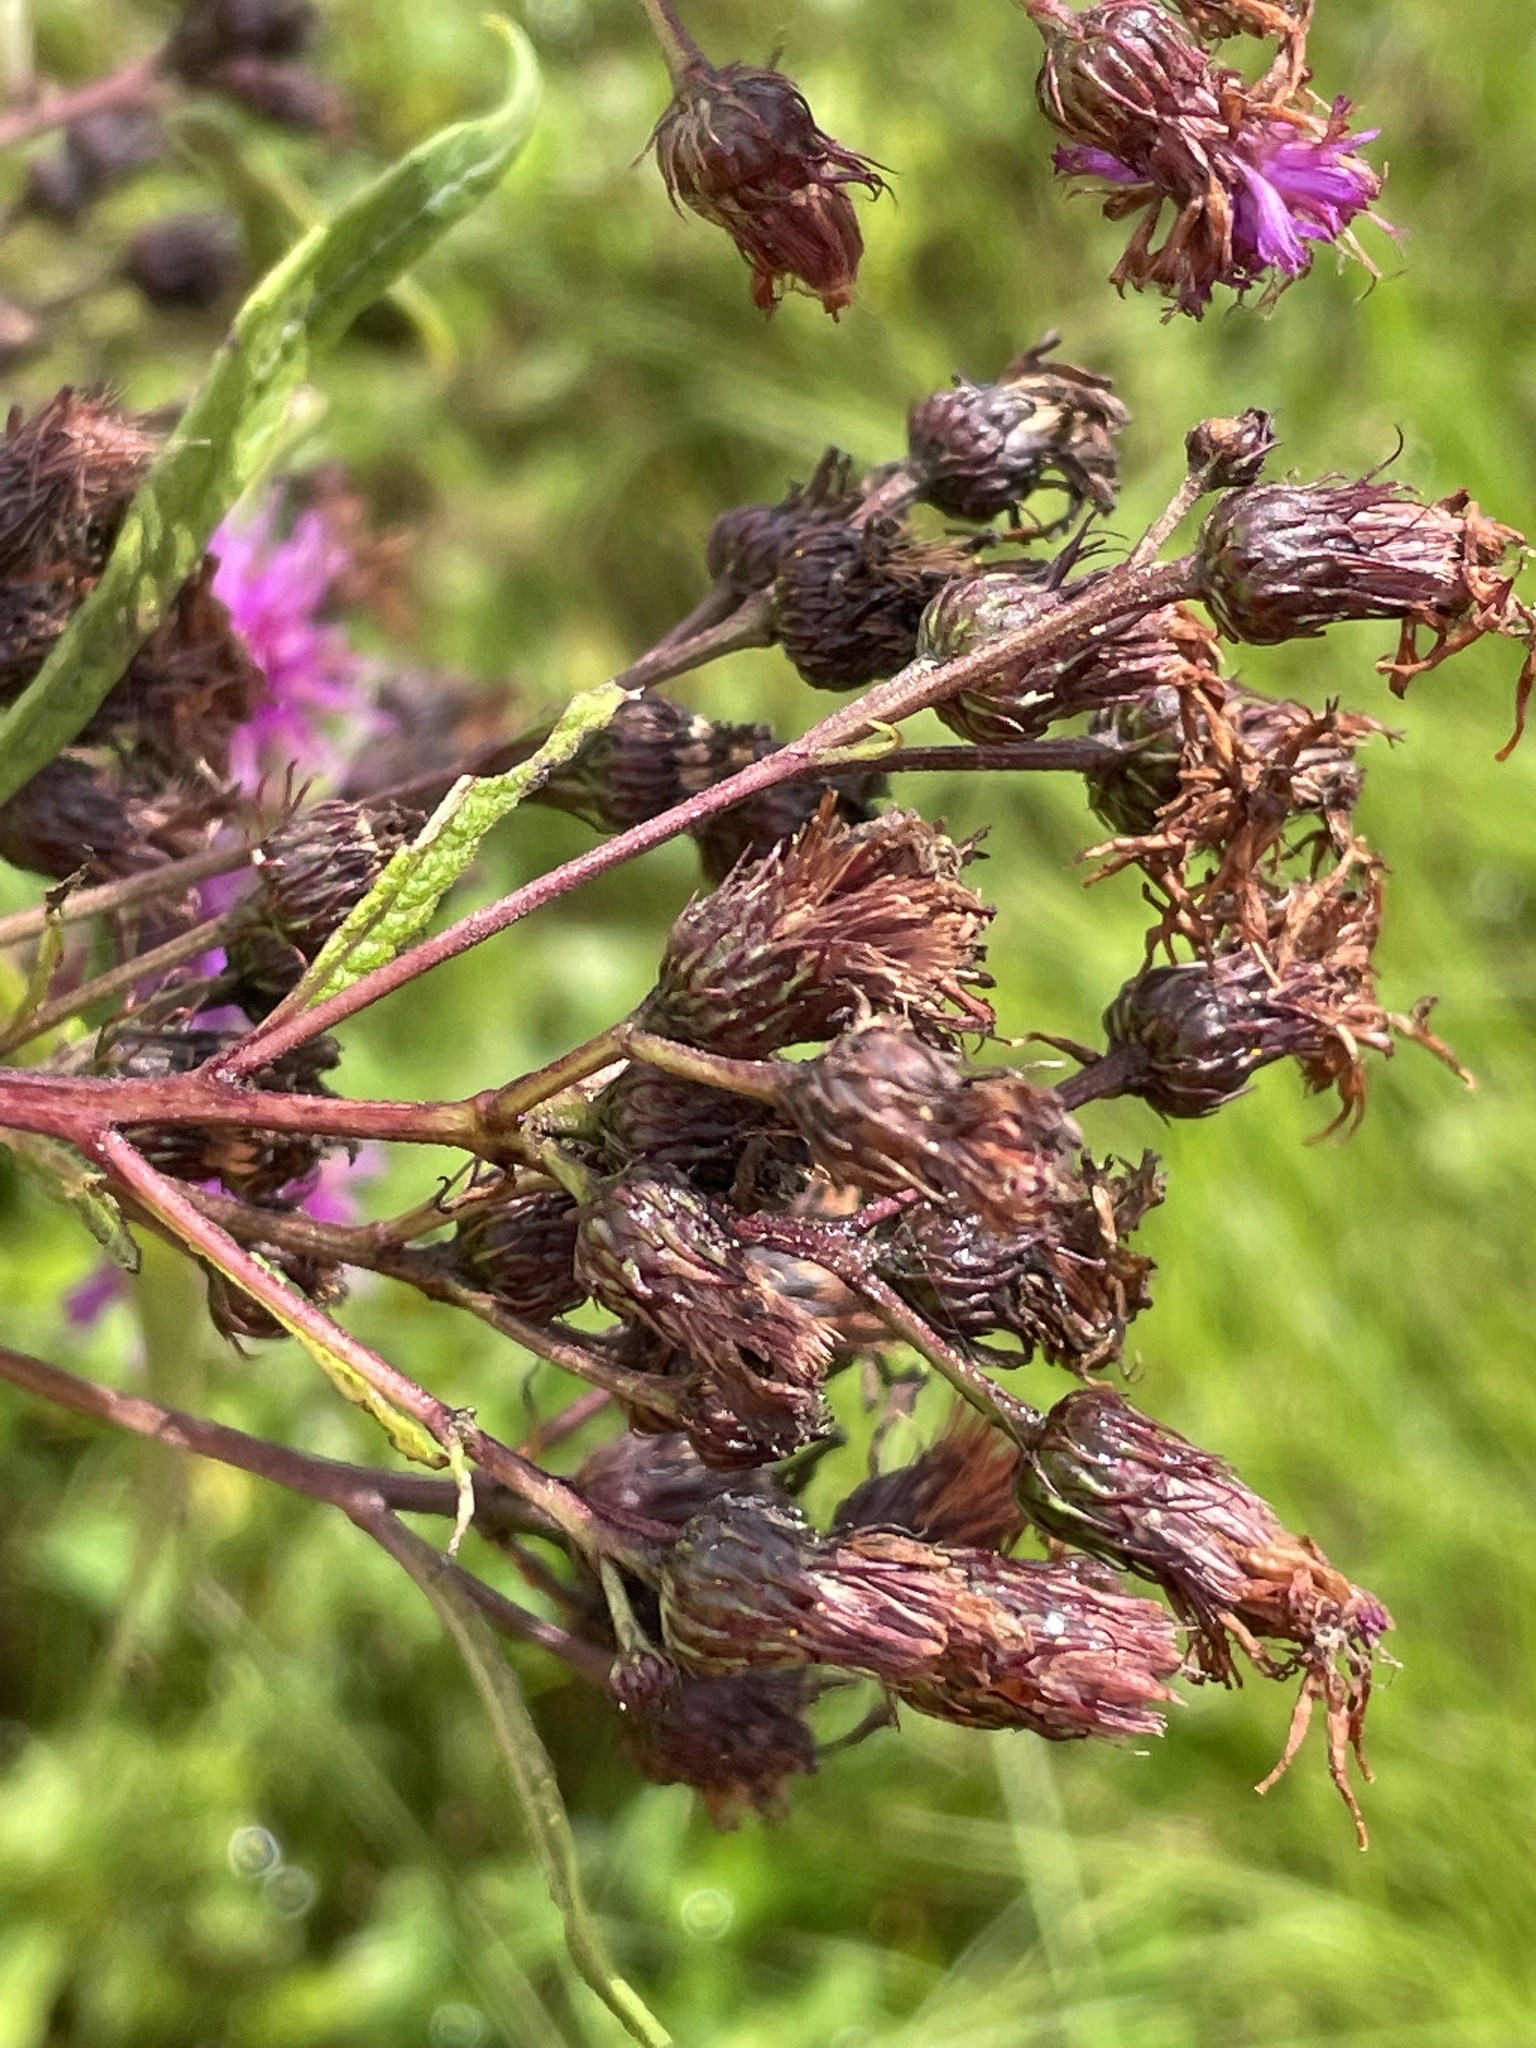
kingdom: Plantae
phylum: Tracheophyta
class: Magnoliopsida
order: Asterales
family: Asteraceae
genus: Vernonia
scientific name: Vernonia noveboracensis
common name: New york ironweed
